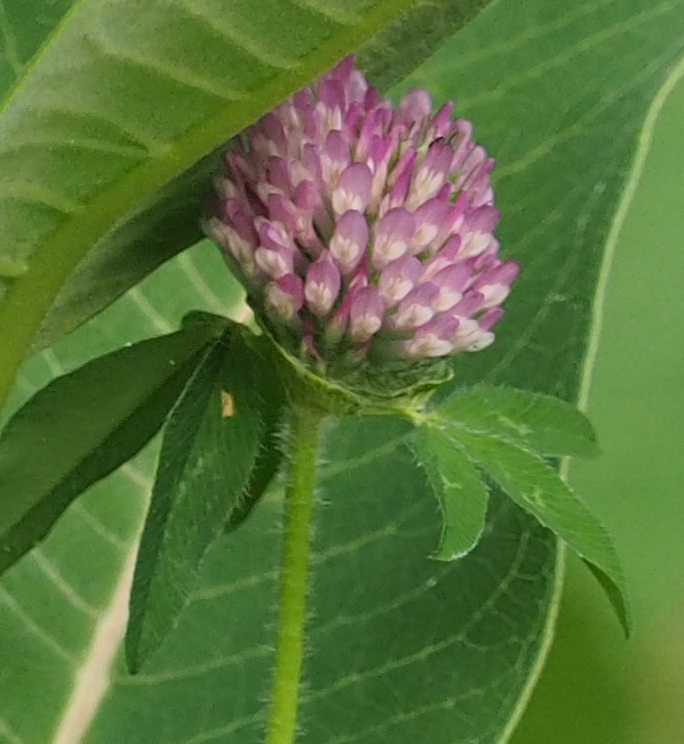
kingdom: Plantae
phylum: Tracheophyta
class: Magnoliopsida
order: Fabales
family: Fabaceae
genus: Trifolium
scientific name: Trifolium pratense
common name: Red clover
